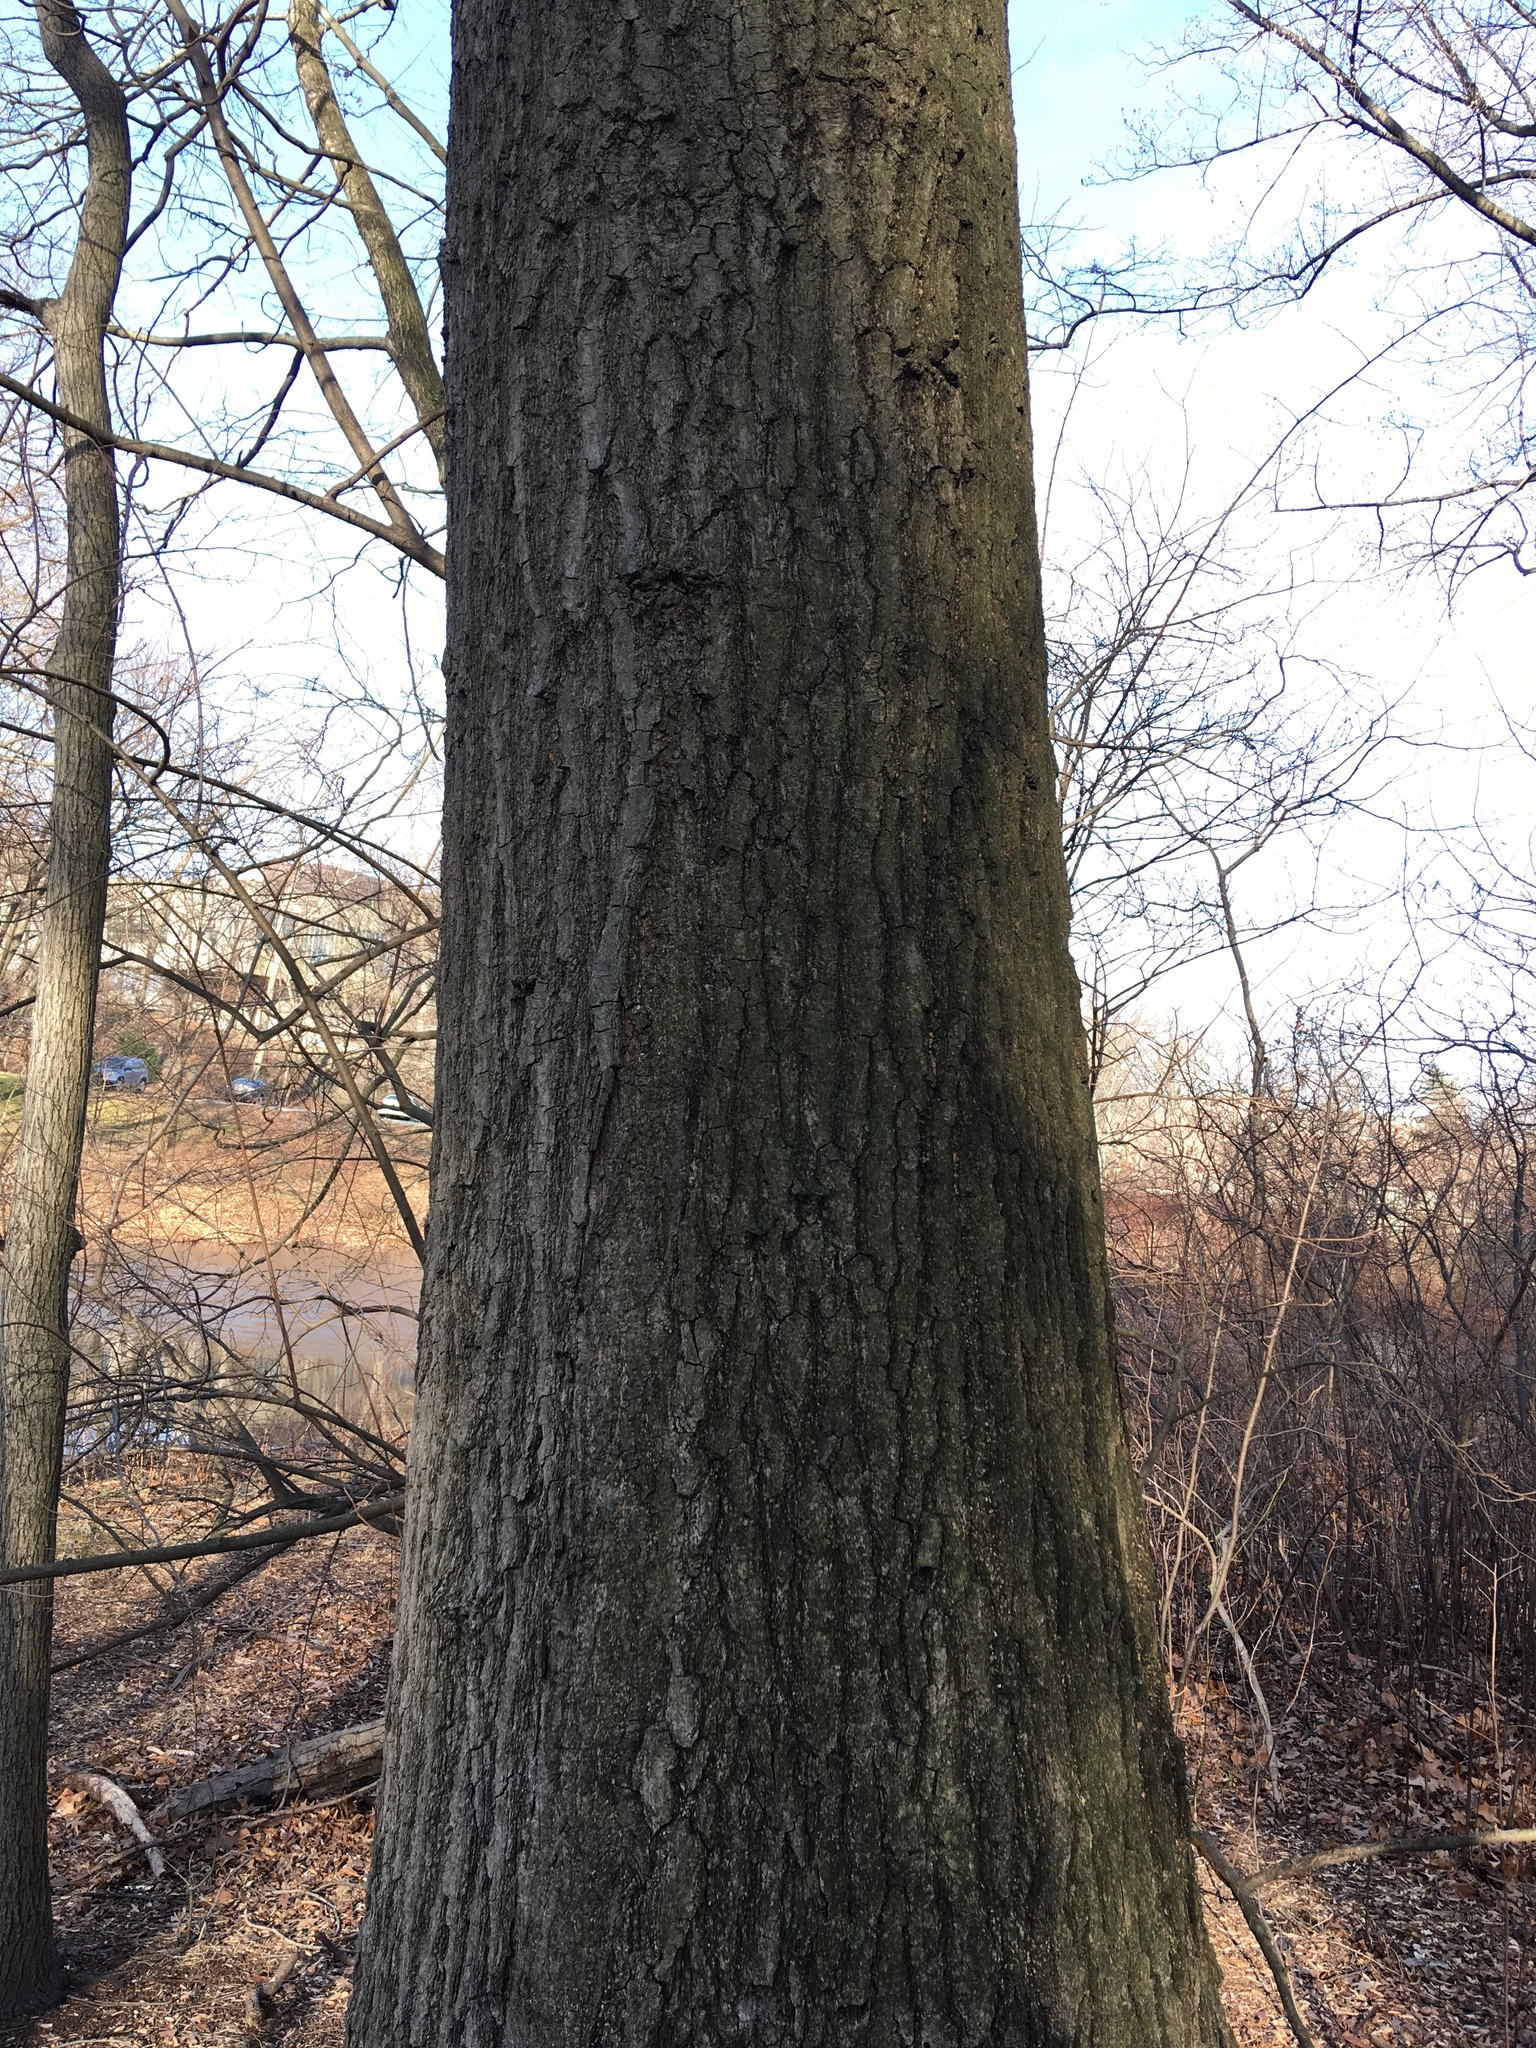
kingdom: Plantae
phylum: Tracheophyta
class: Magnoliopsida
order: Fagales
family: Fagaceae
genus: Quercus
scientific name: Quercus rubra
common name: Red oak
